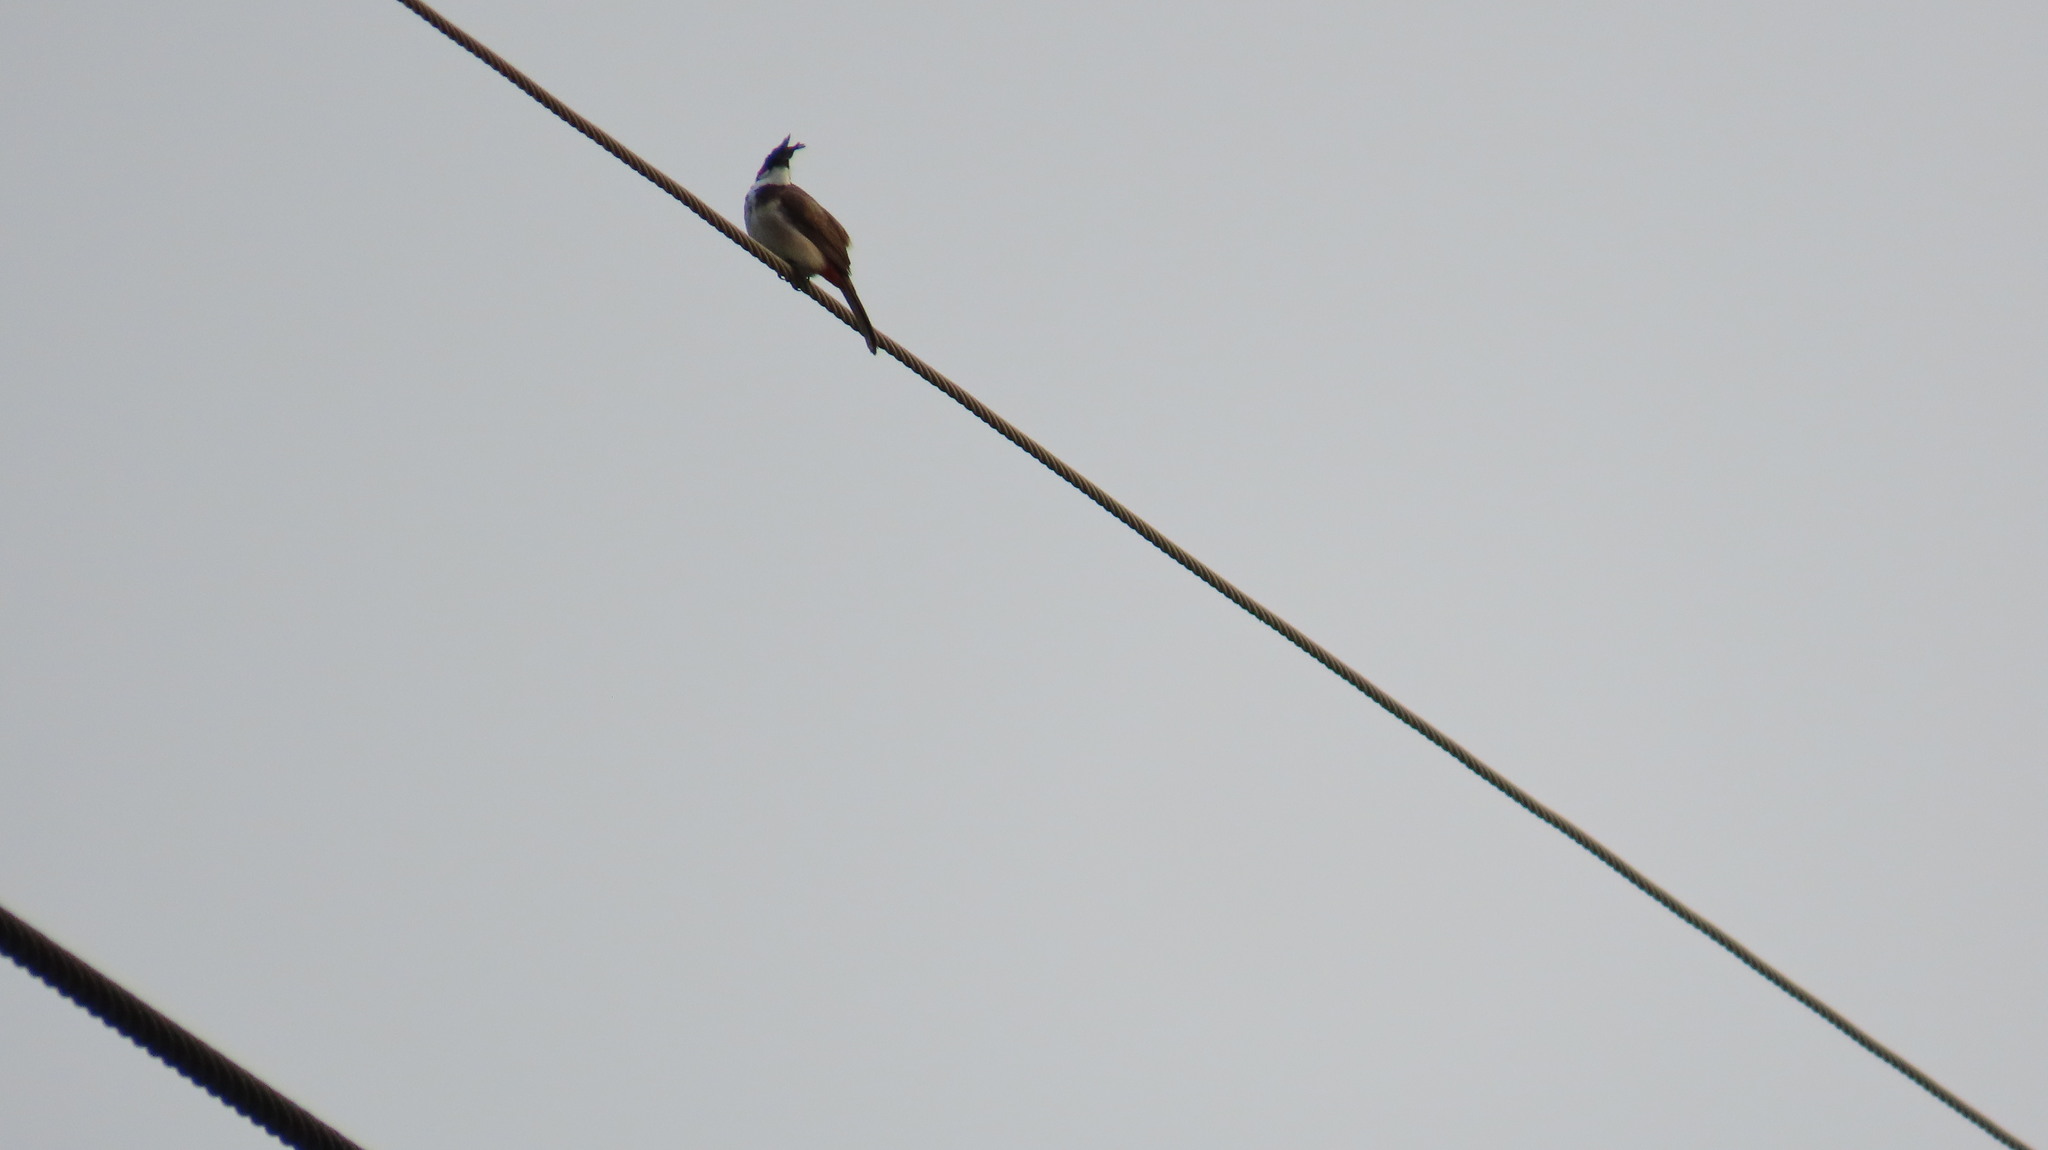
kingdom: Animalia
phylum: Chordata
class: Aves
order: Passeriformes
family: Pycnonotidae
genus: Pycnonotus
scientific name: Pycnonotus jocosus
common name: Red-whiskered bulbul
